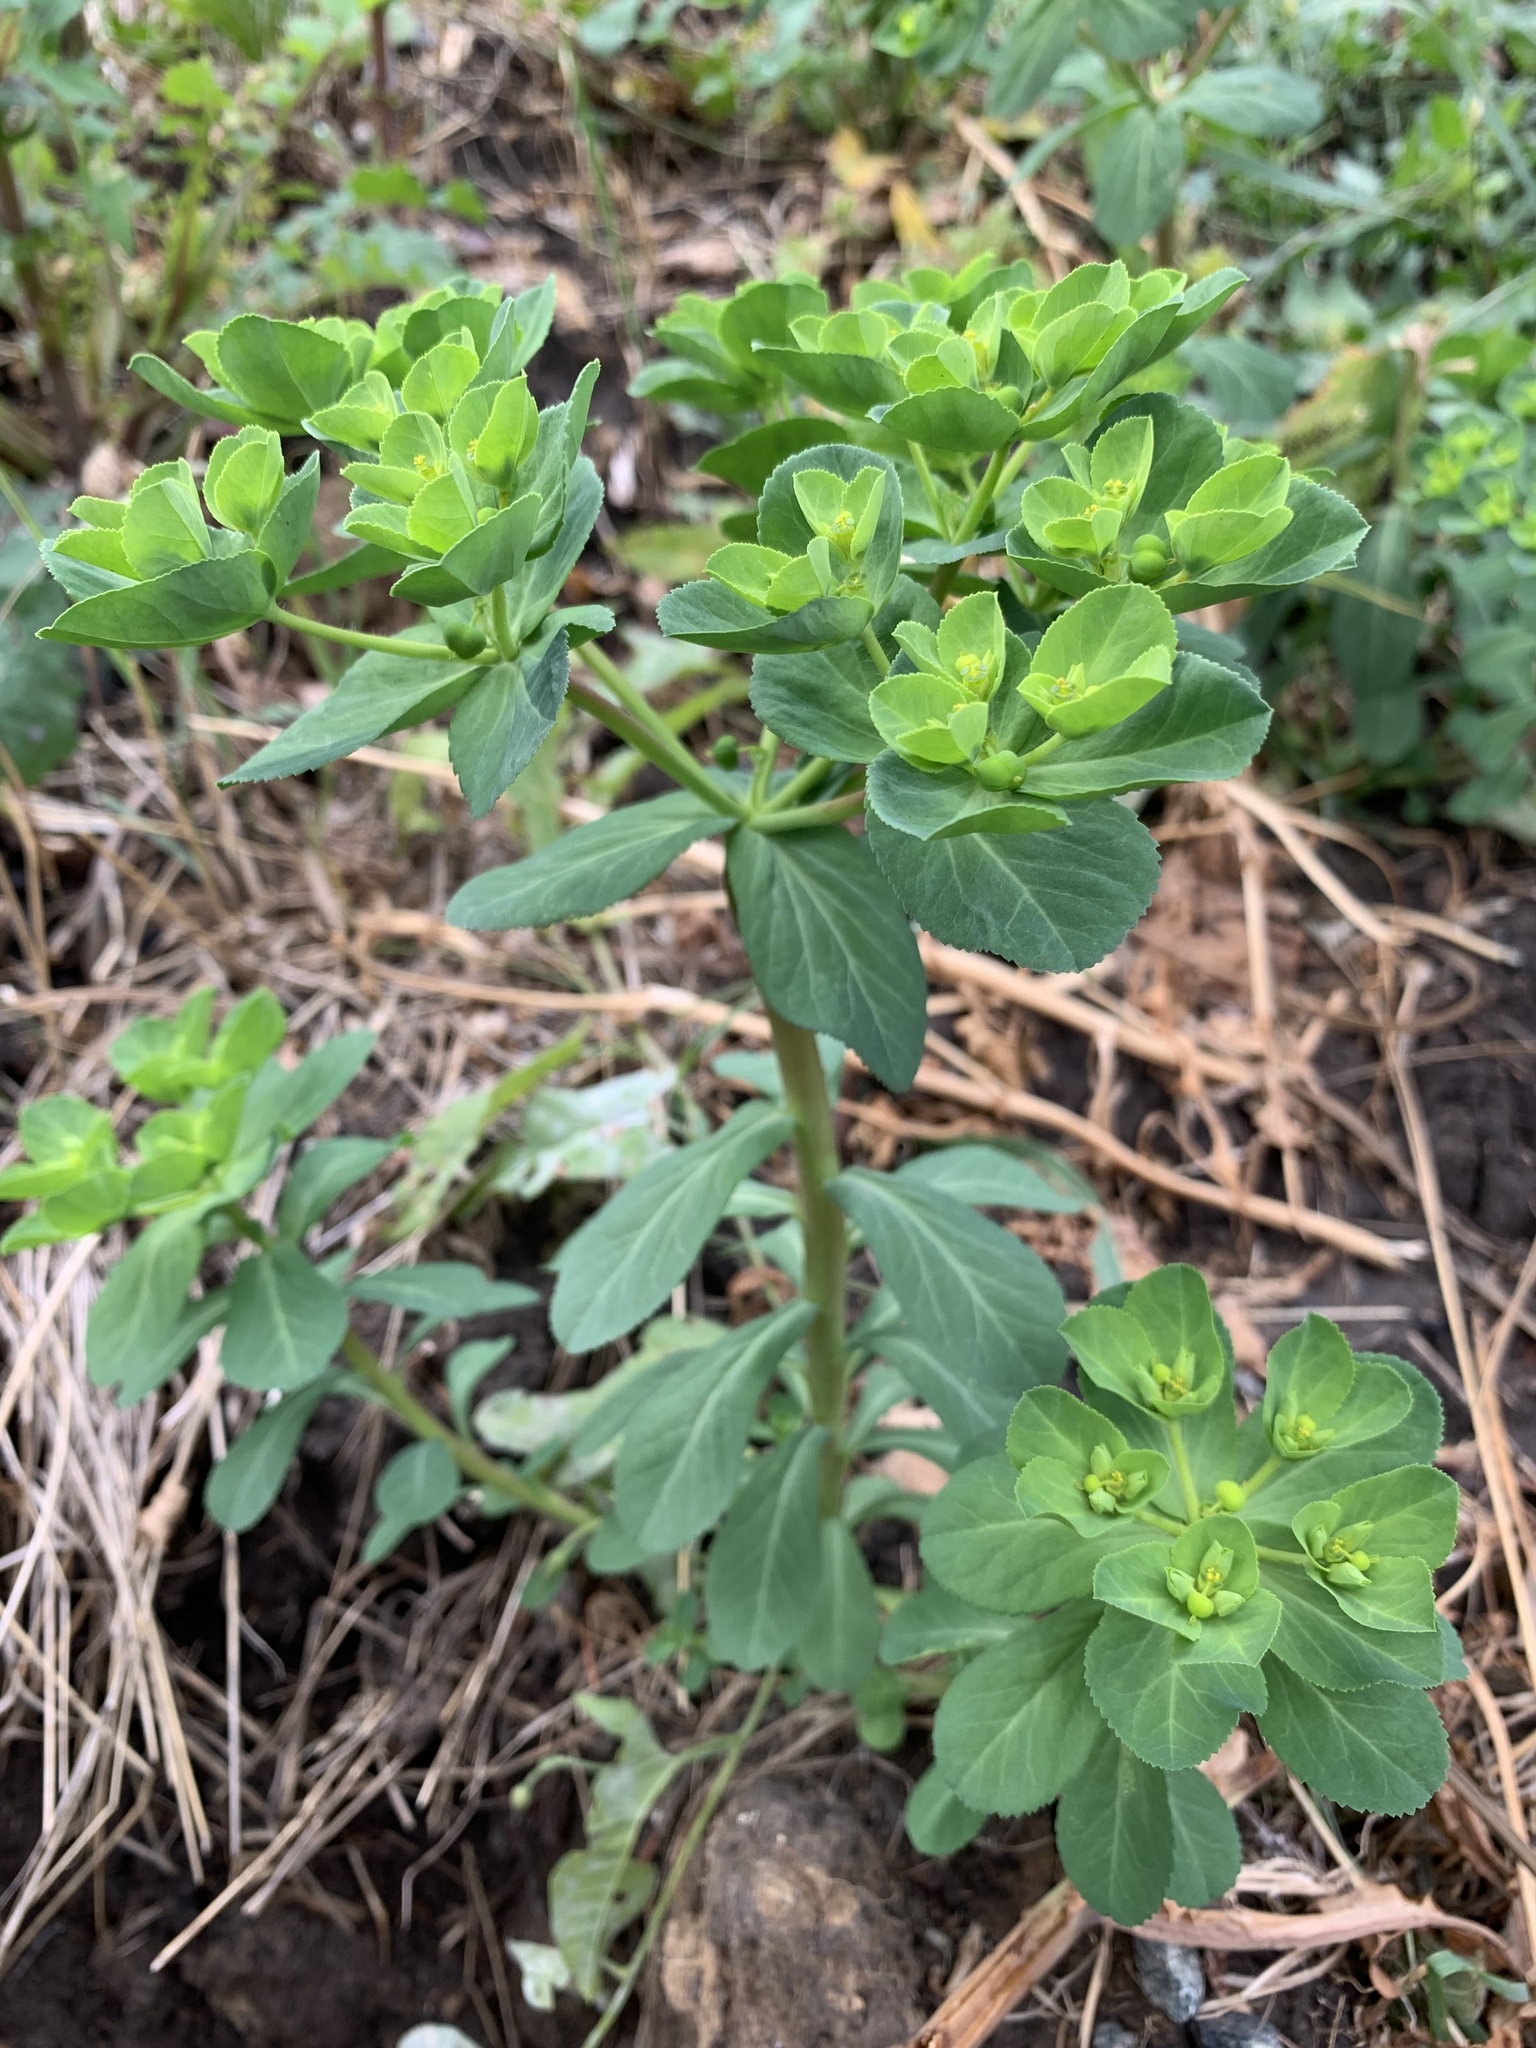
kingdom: Plantae
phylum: Tracheophyta
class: Magnoliopsida
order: Malpighiales
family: Euphorbiaceae
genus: Euphorbia
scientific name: Euphorbia helioscopia
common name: Sun spurge
